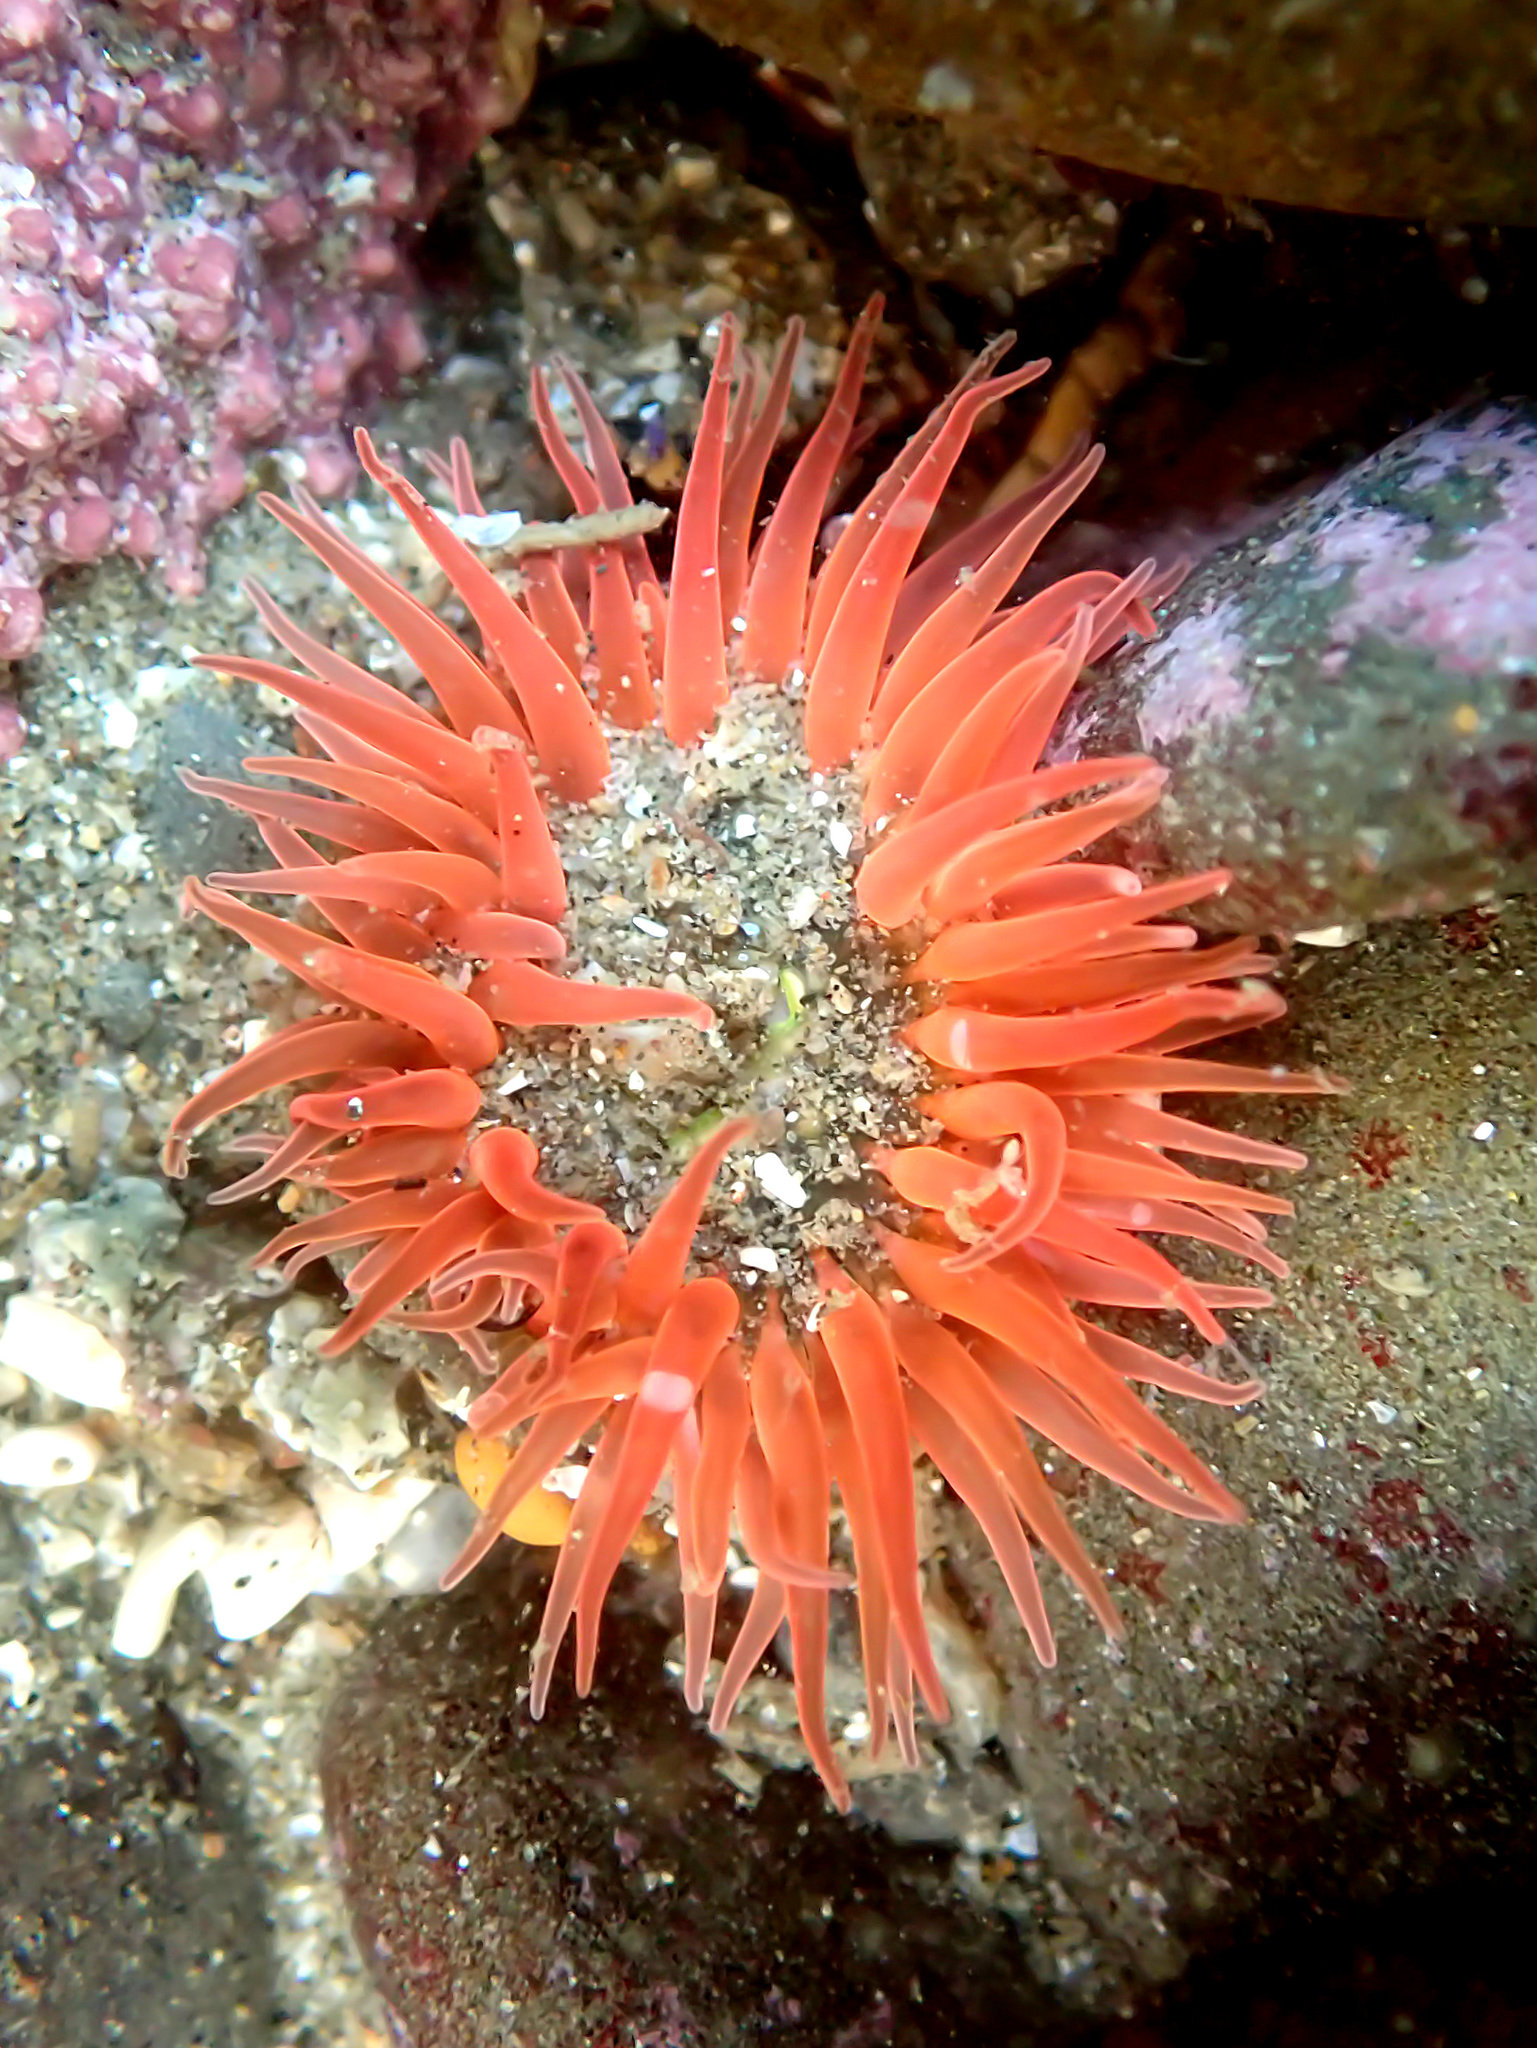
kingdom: Animalia
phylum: Cnidaria
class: Anthozoa
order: Actiniaria
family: Actiniidae
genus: Anthopleura
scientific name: Anthopleura artemisia
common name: Buried sea anemone
